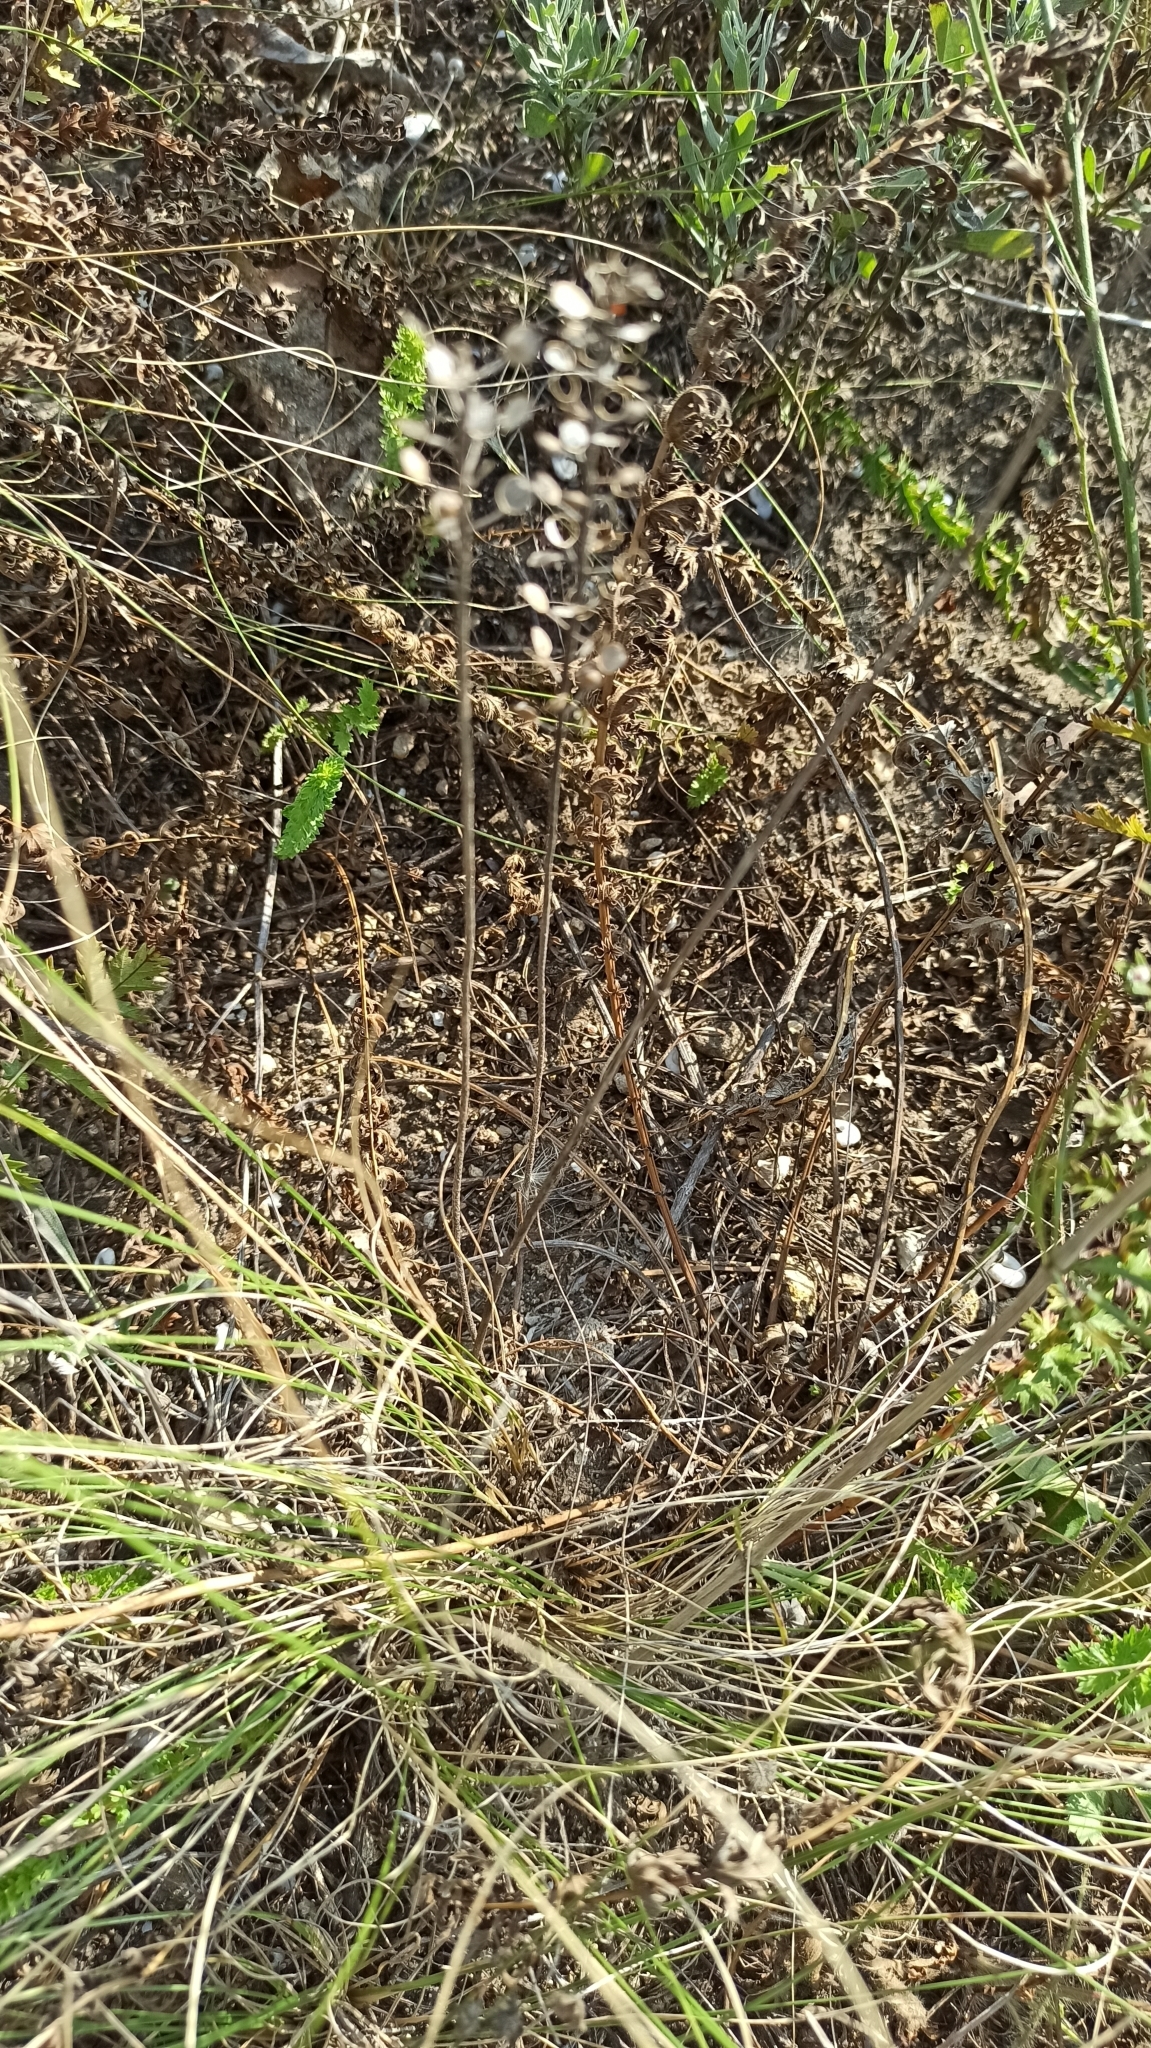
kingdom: Plantae
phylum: Tracheophyta
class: Magnoliopsida
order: Brassicales
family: Brassicaceae
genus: Alyssum
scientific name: Alyssum turkestanicum
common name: Desert alyssum
